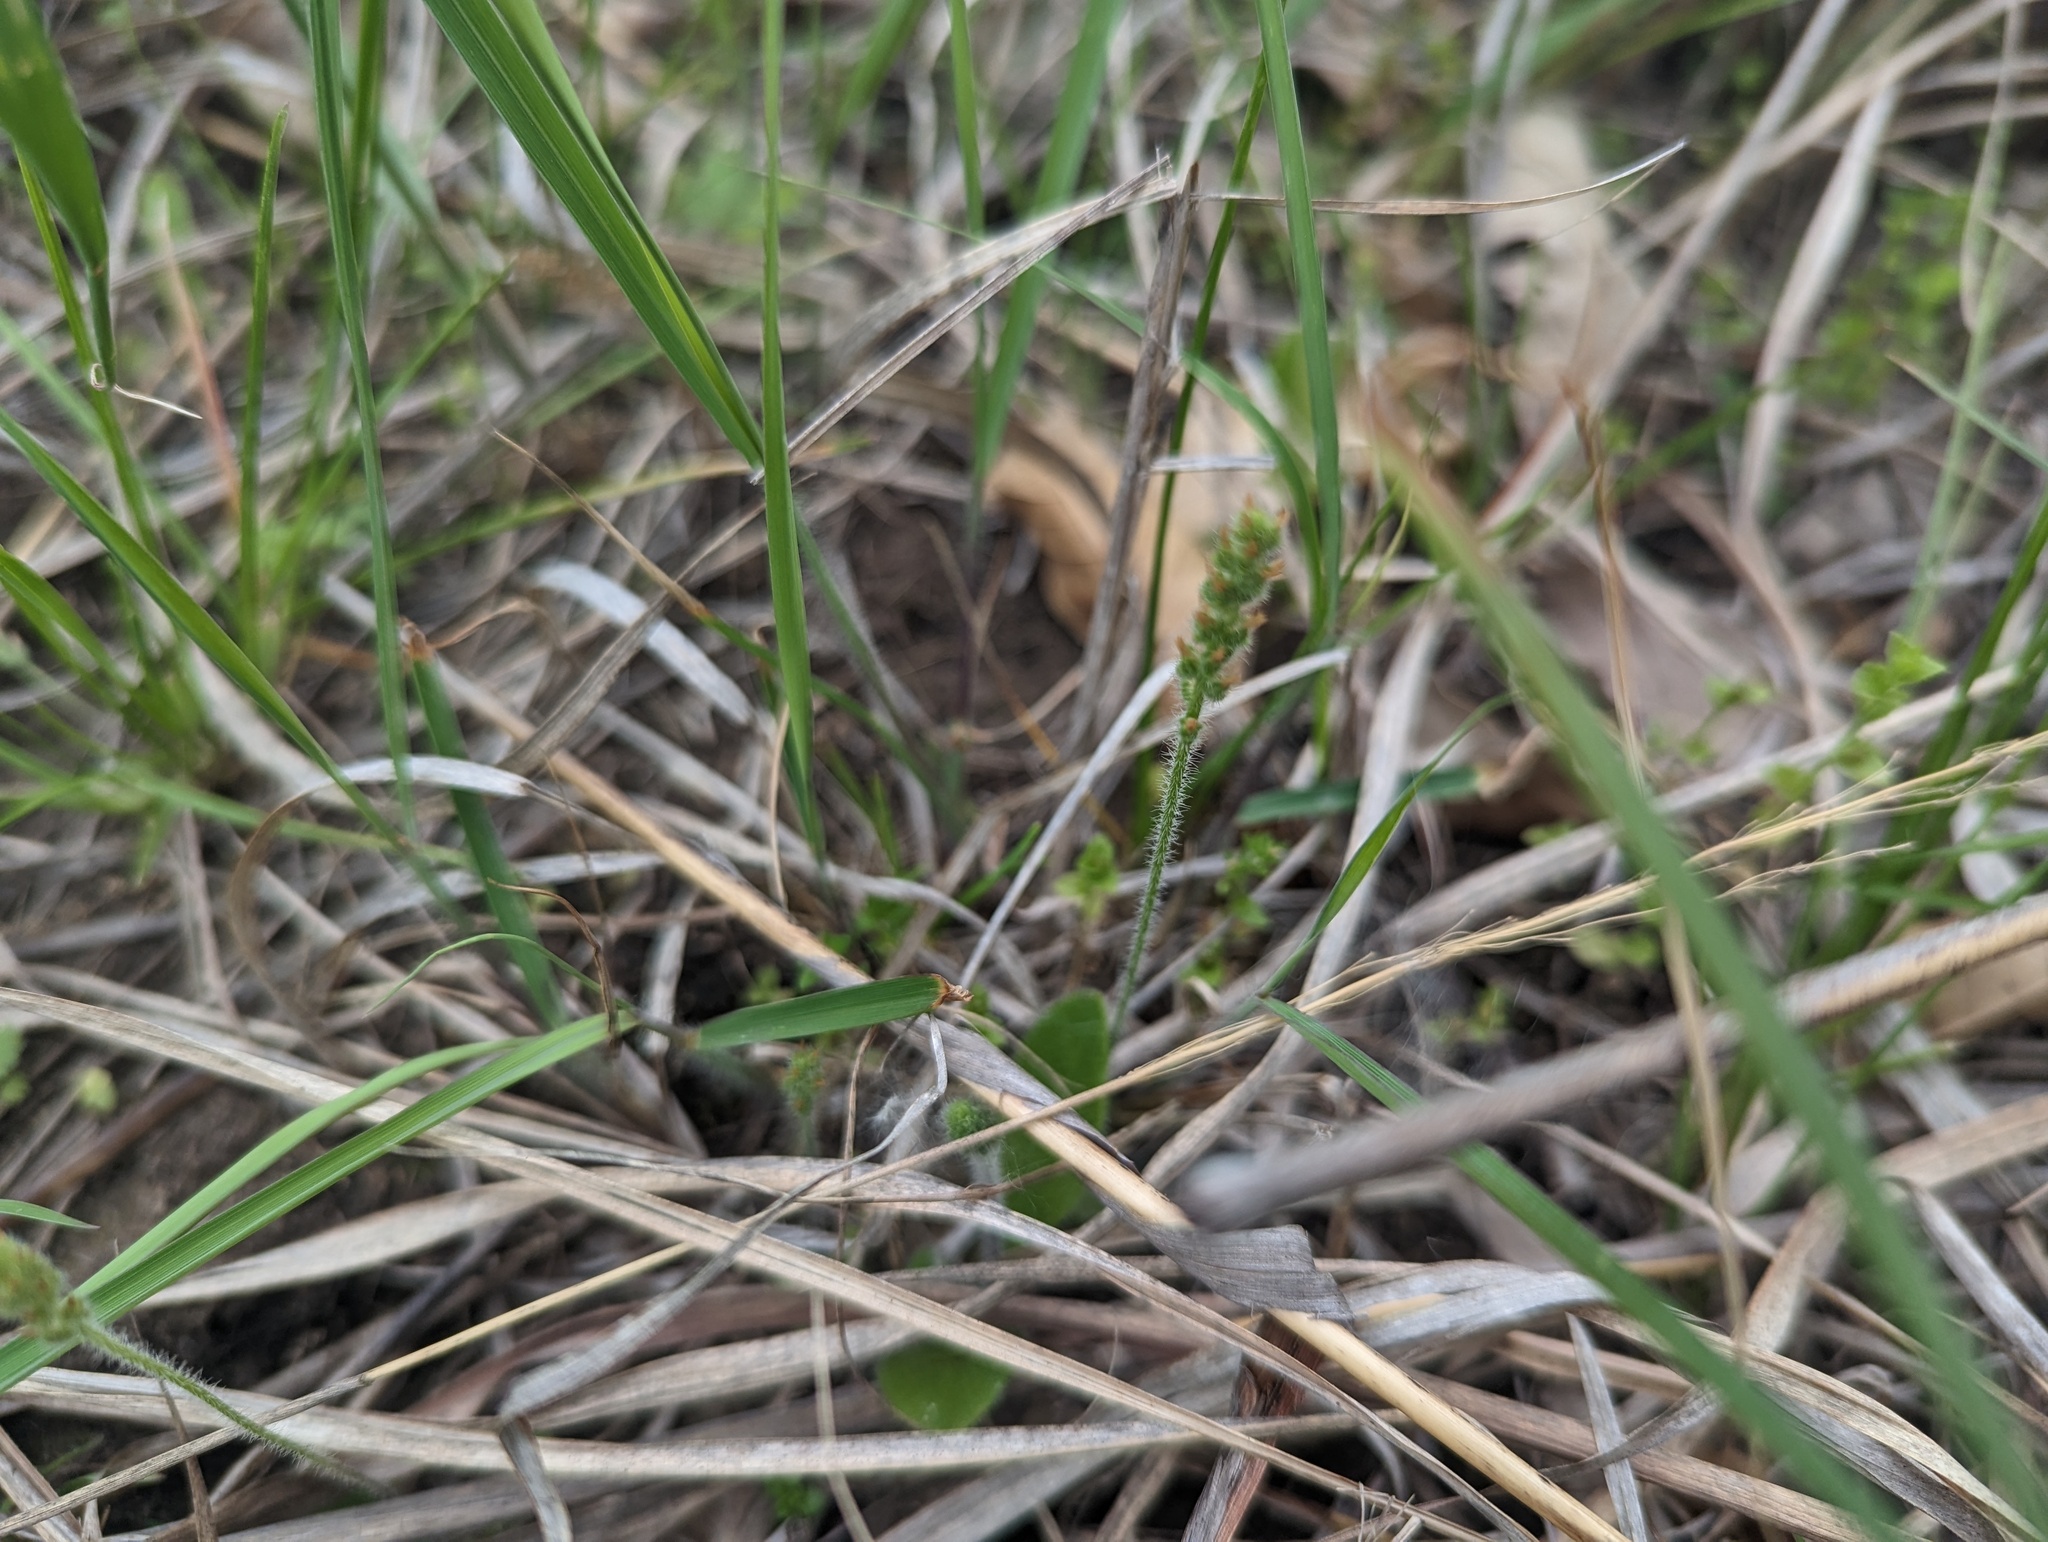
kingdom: Plantae
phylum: Tracheophyta
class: Magnoliopsida
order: Lamiales
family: Plantaginaceae
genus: Plantago
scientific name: Plantago virginica
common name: Hoary plantain
